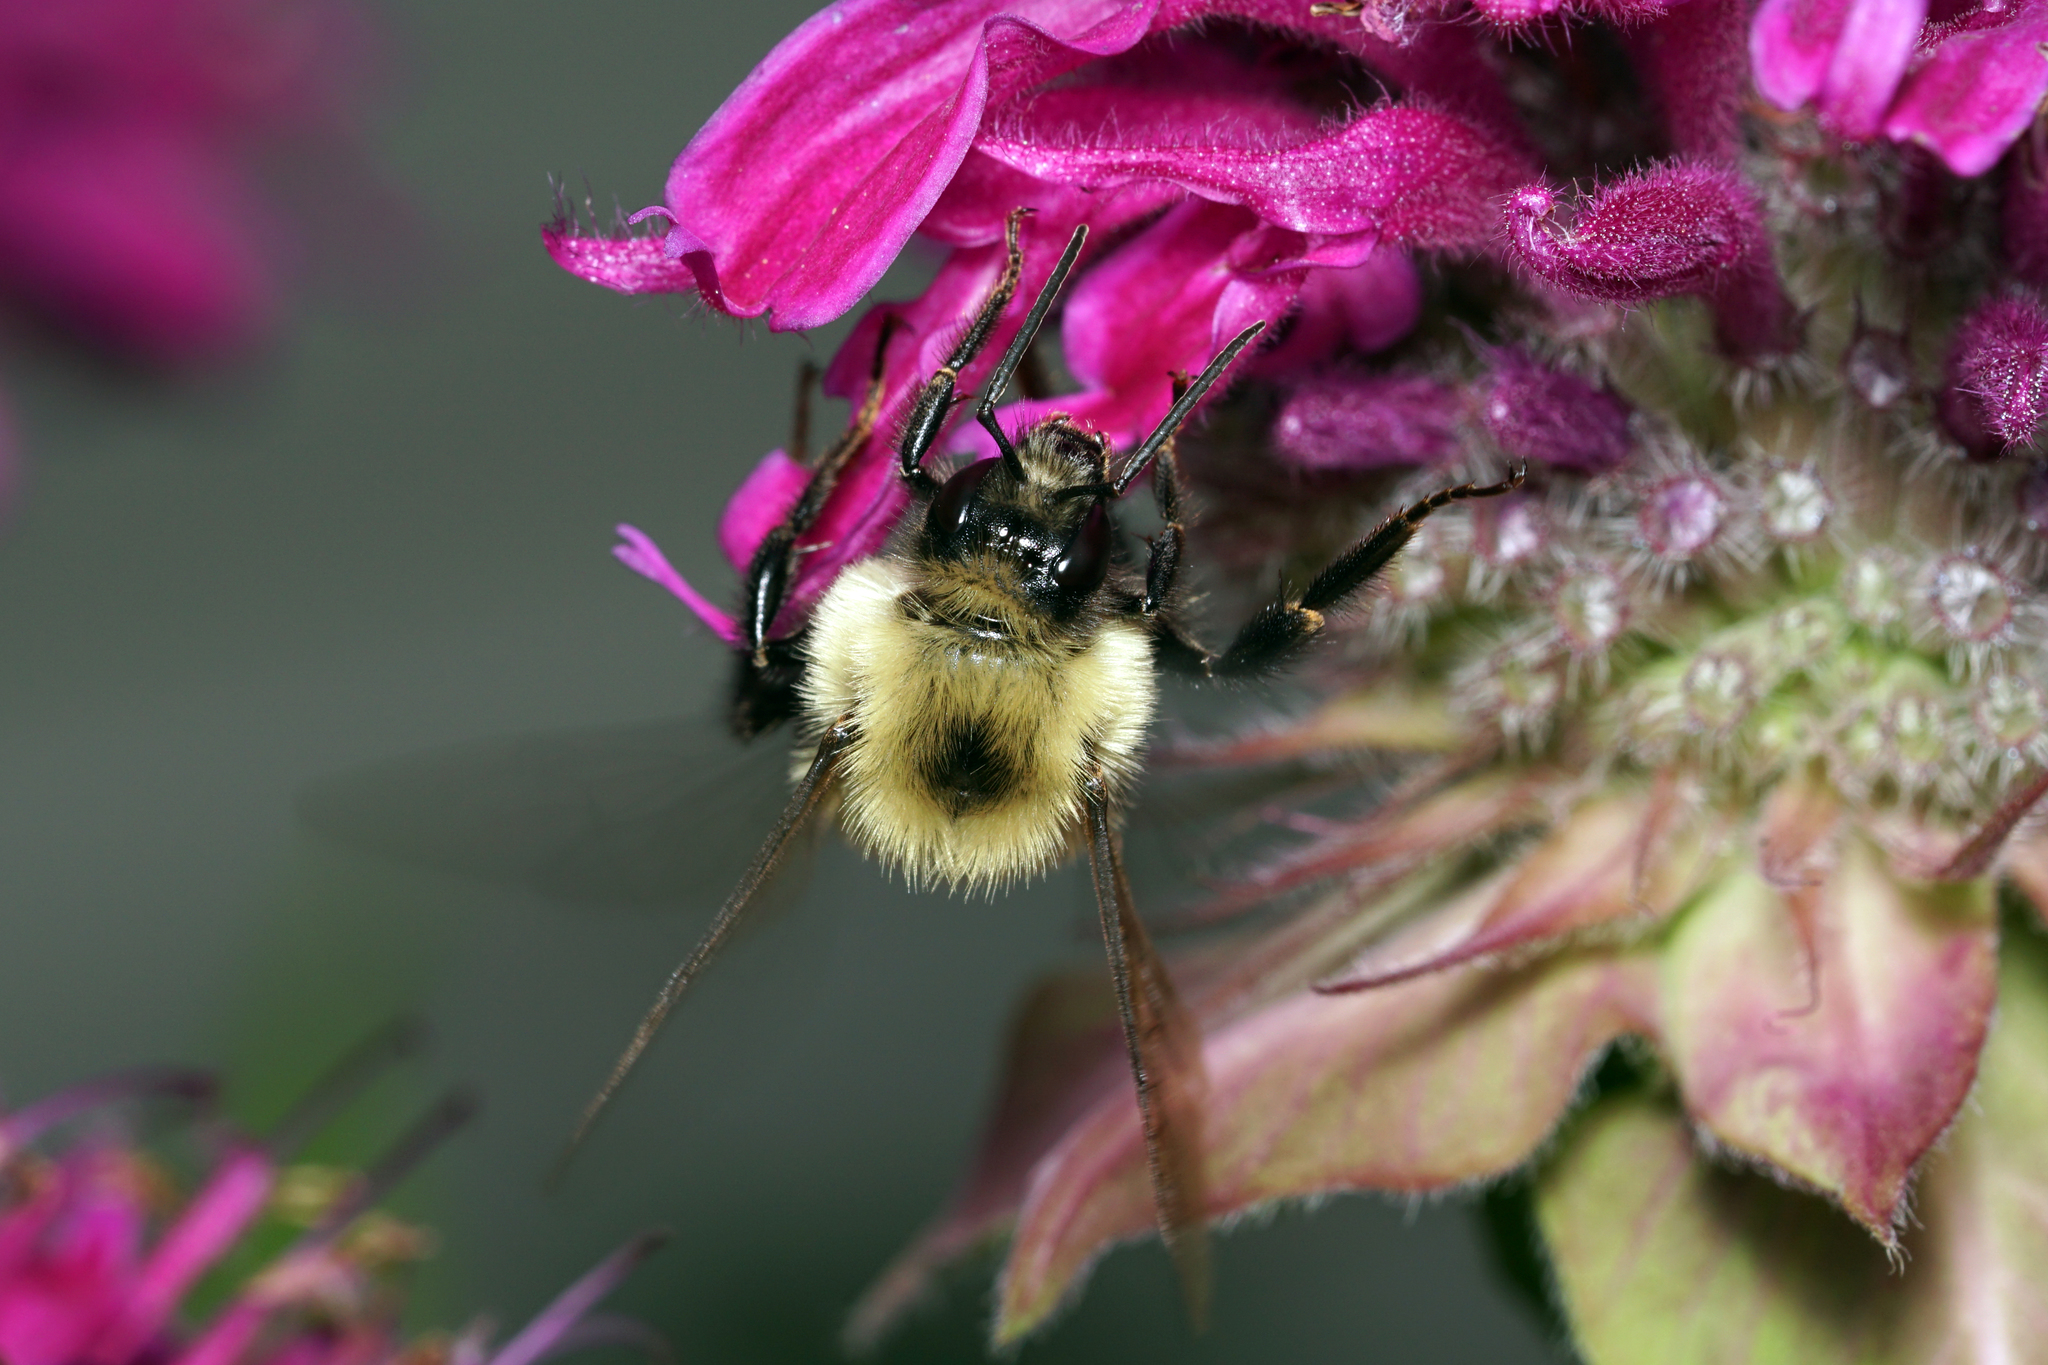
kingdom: Animalia
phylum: Arthropoda
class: Insecta
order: Hymenoptera
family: Apidae
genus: Bombus
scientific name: Bombus bimaculatus
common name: Two-spotted bumble bee
